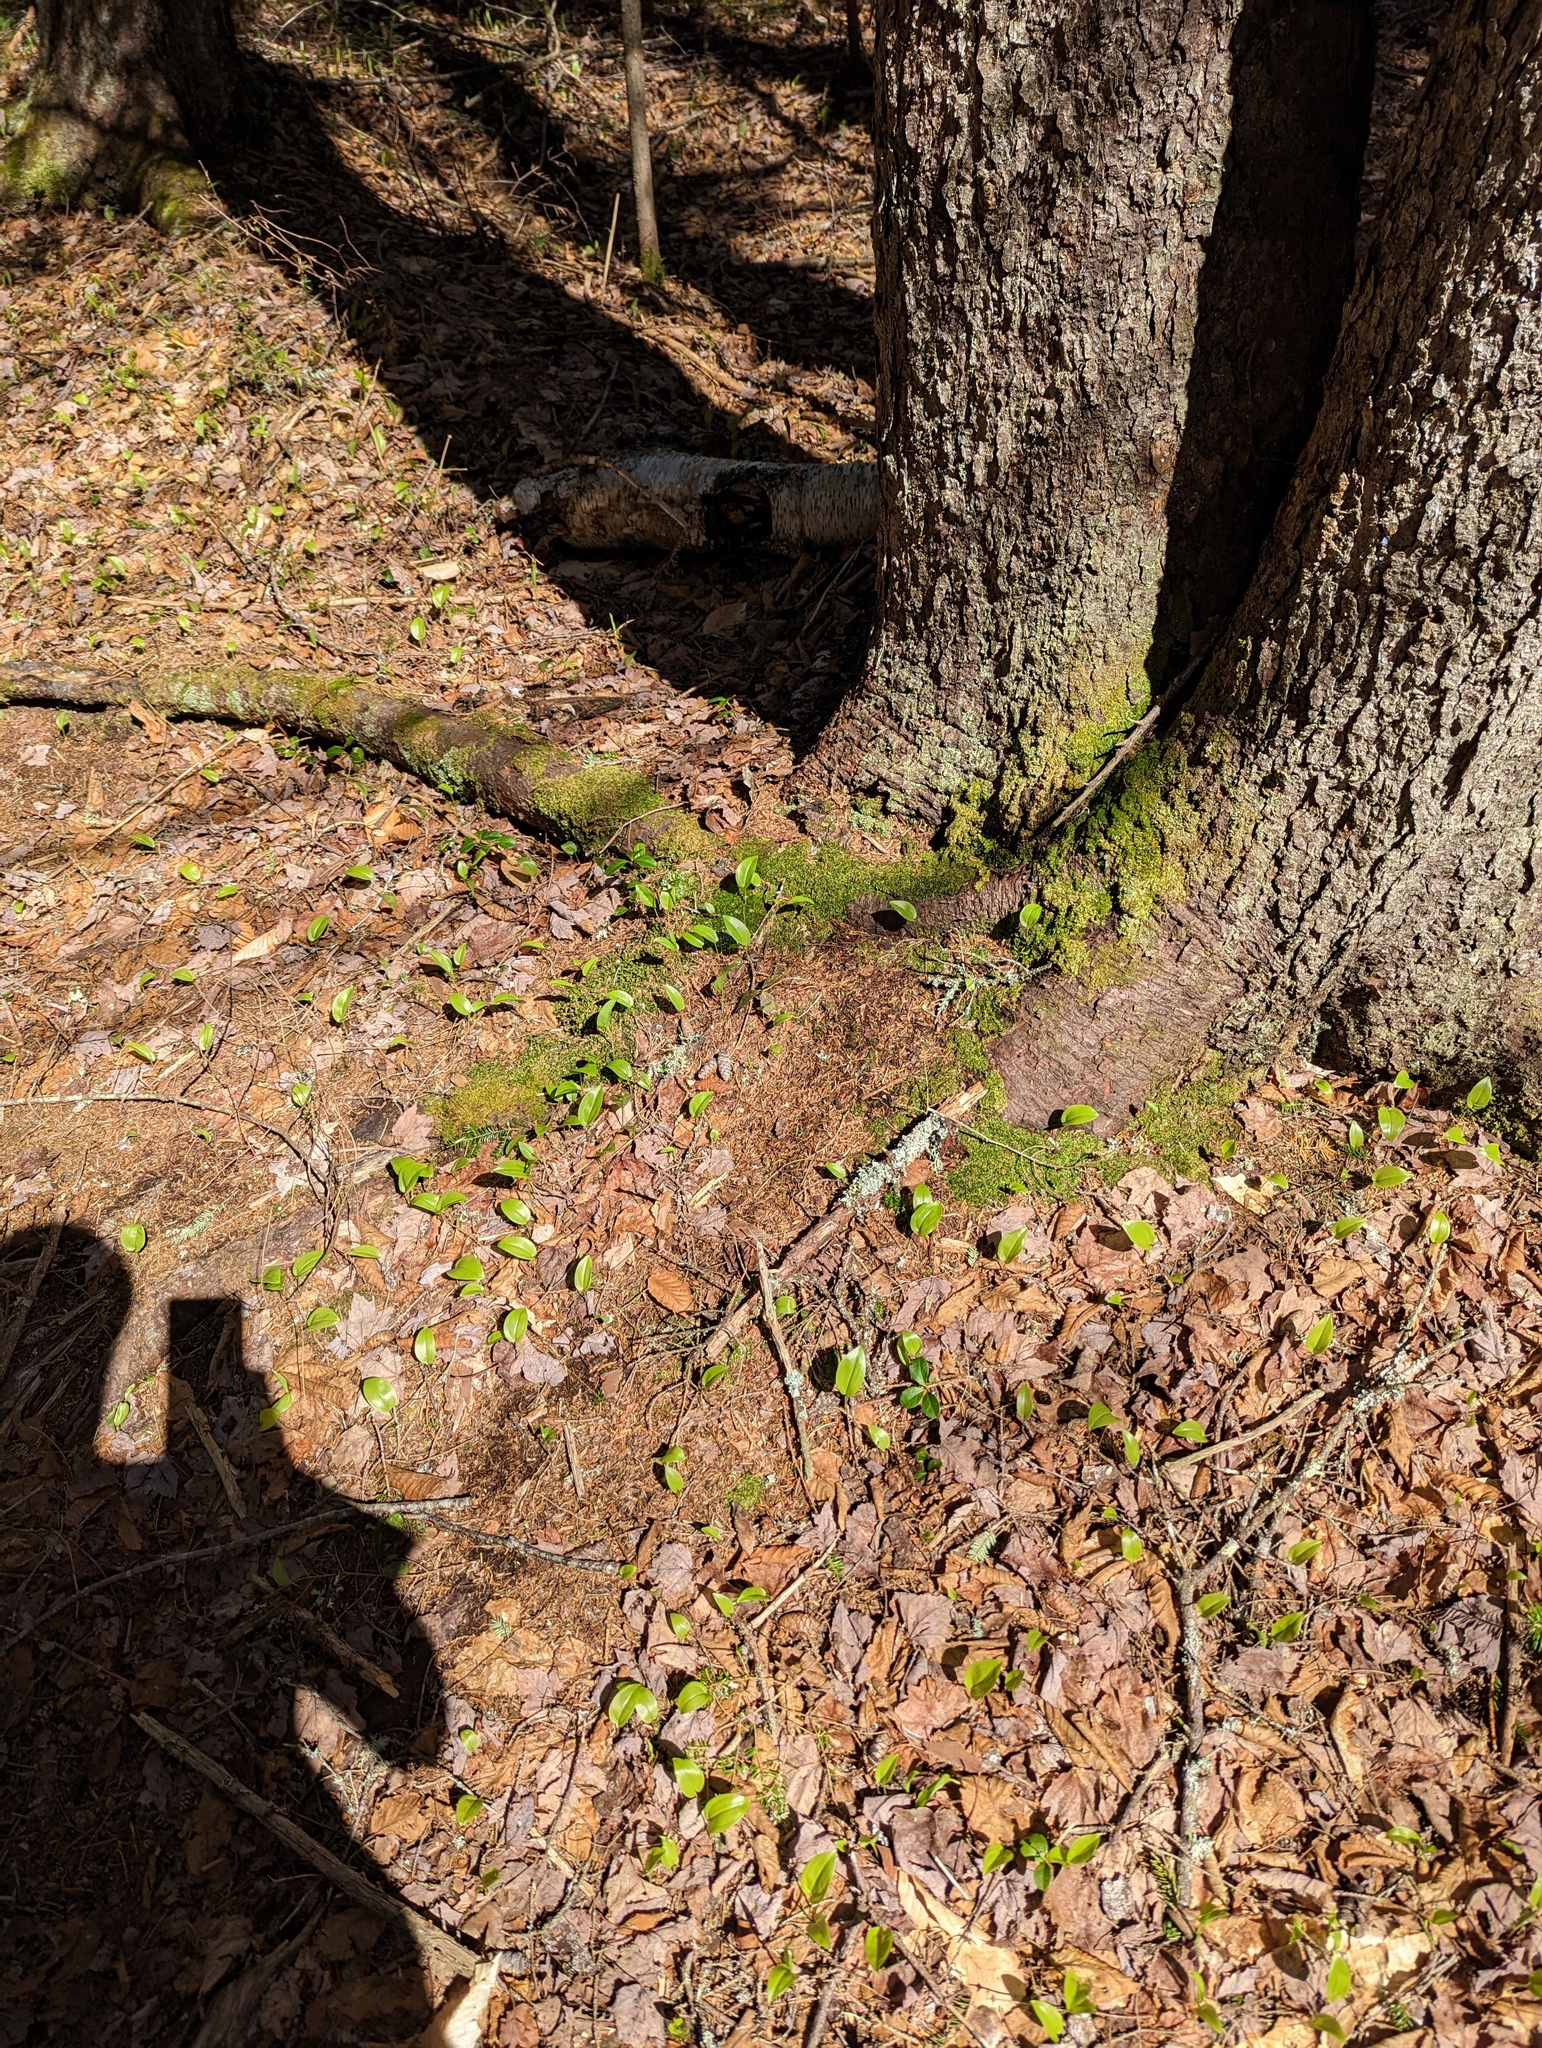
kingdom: Plantae
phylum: Tracheophyta
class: Liliopsida
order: Asparagales
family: Asparagaceae
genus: Maianthemum
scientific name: Maianthemum canadense
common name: False lily-of-the-valley
